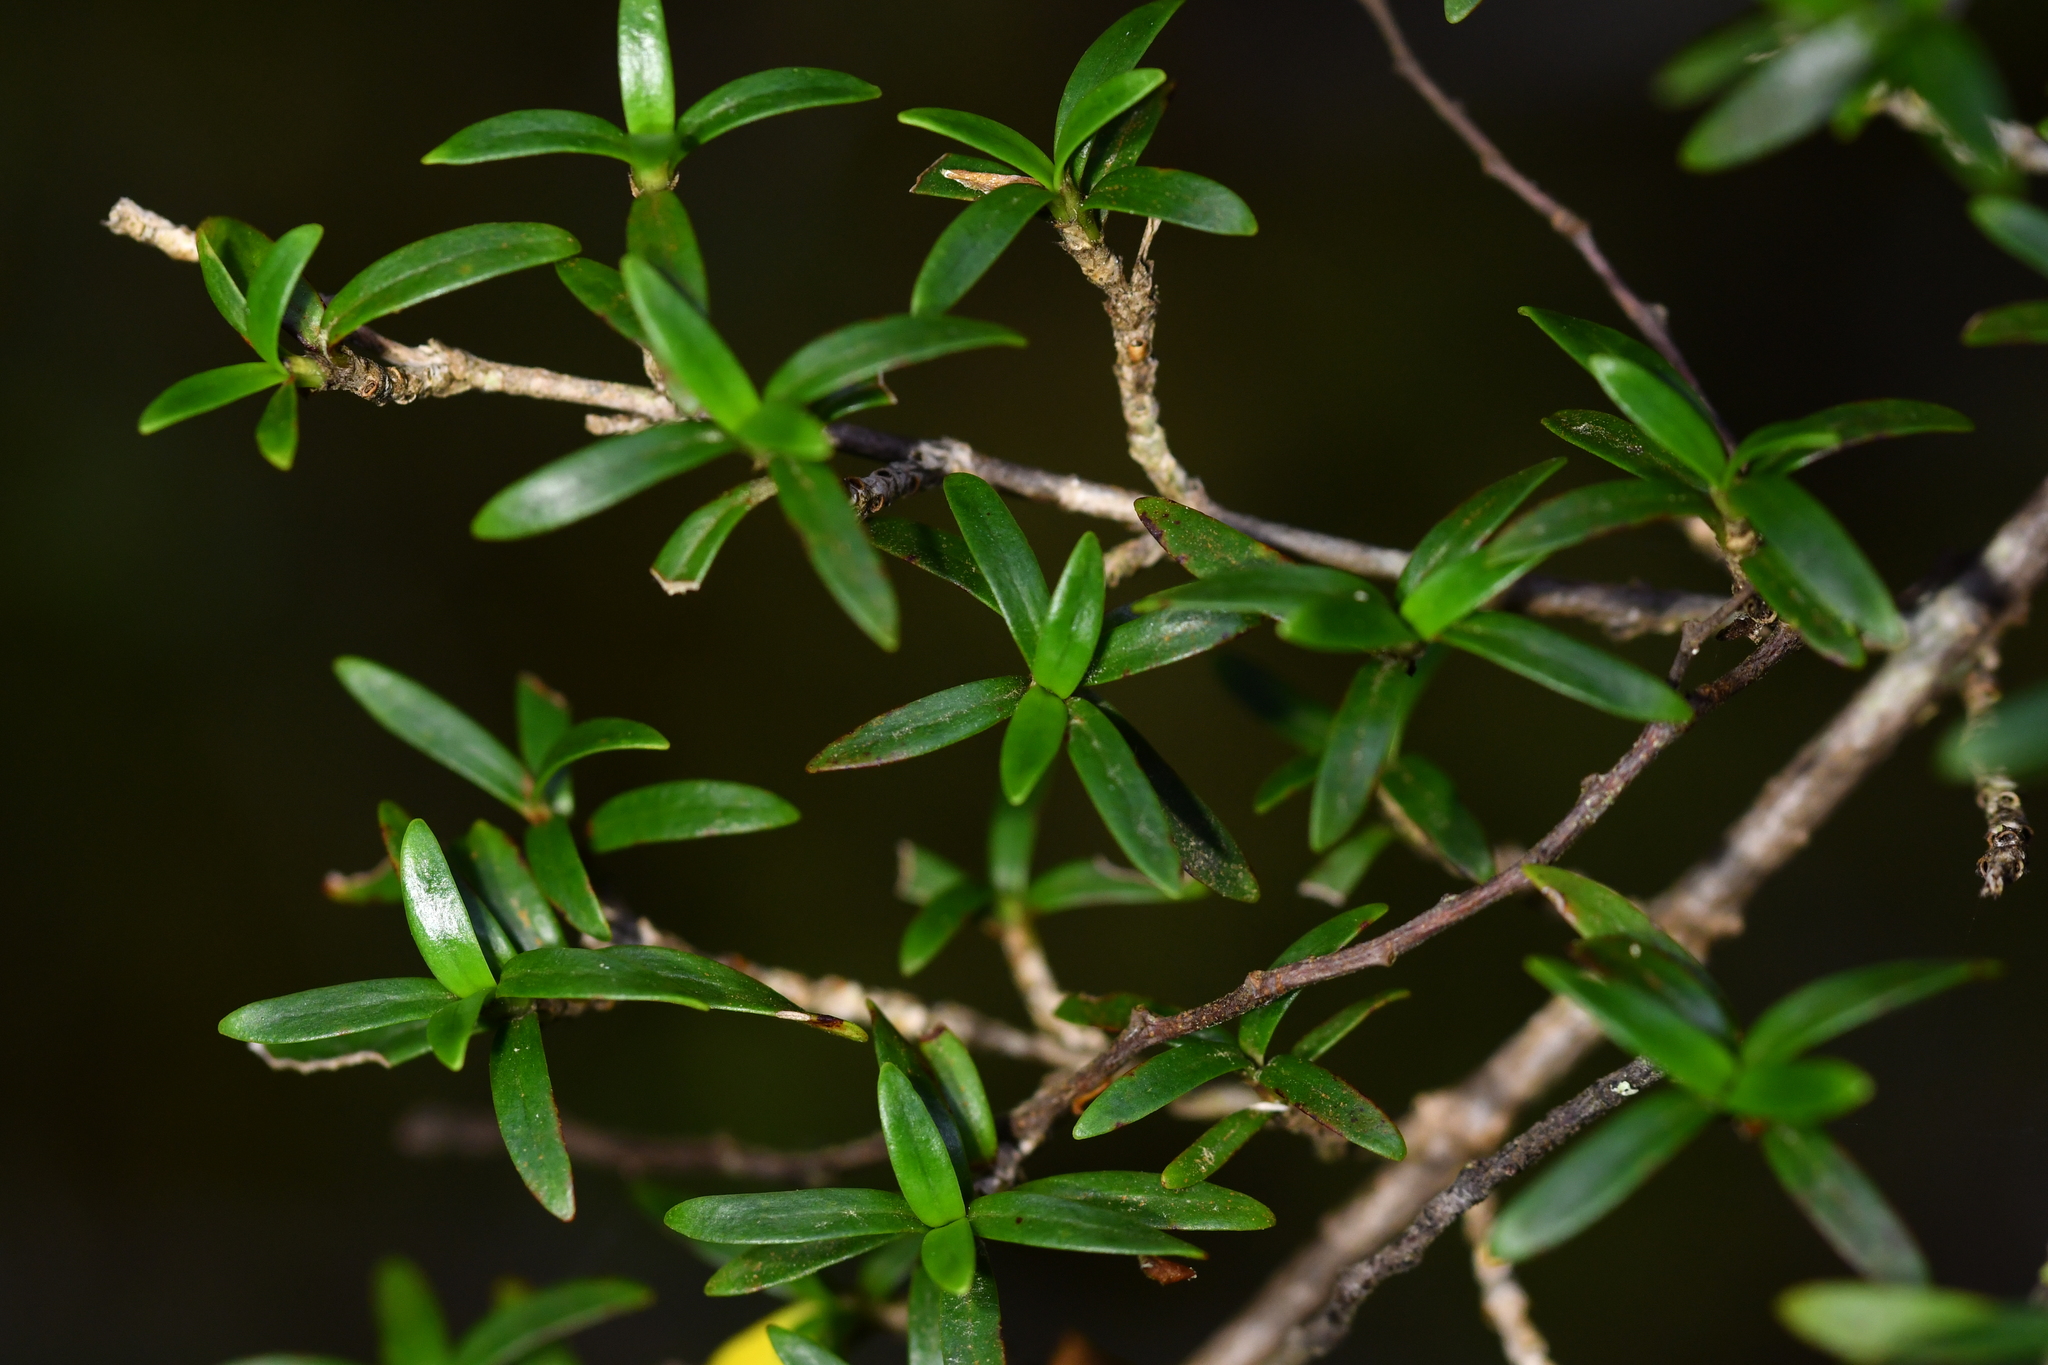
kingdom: Plantae
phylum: Tracheophyta
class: Magnoliopsida
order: Gentianales
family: Rubiaceae
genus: Coprosma
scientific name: Coprosma pseudocuneata
